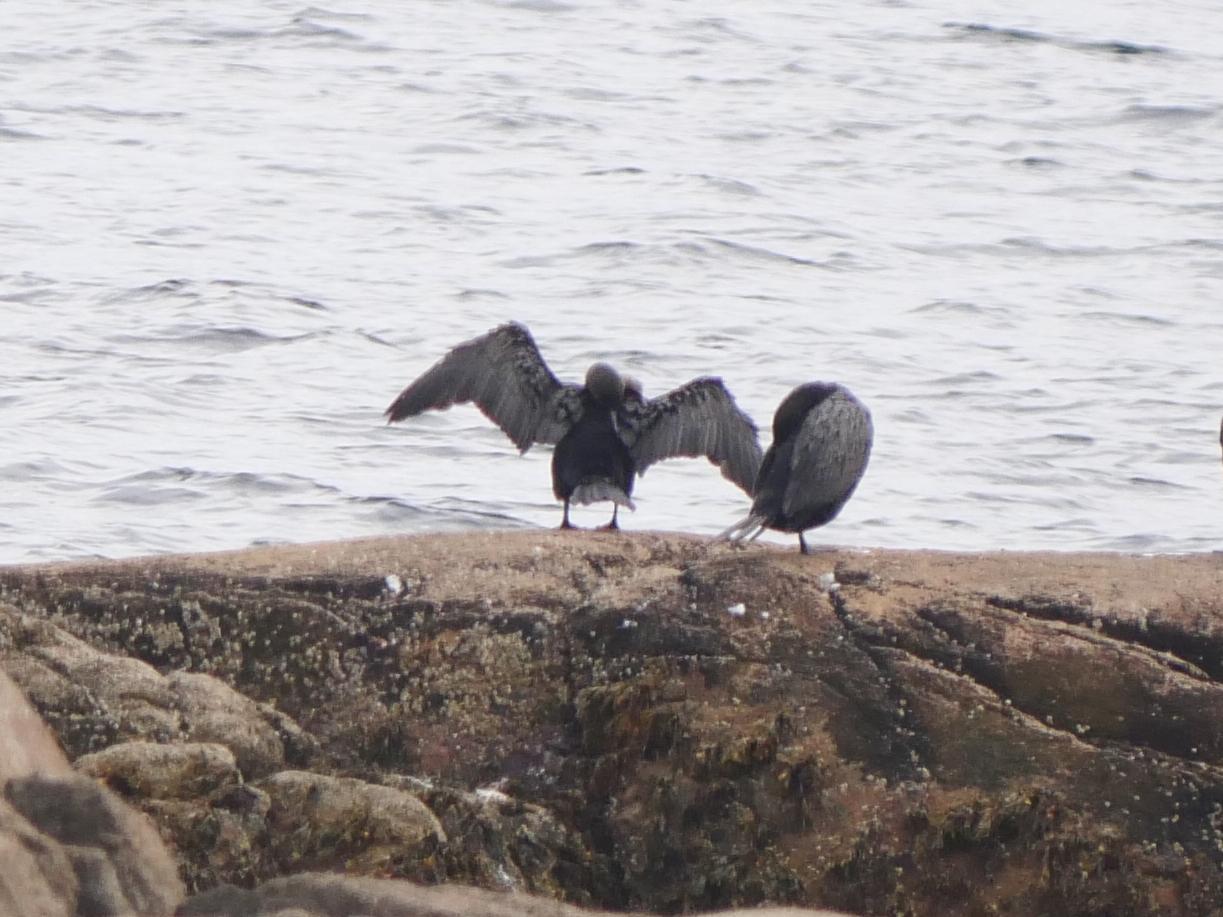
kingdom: Animalia
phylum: Chordata
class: Aves
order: Suliformes
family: Phalacrocoracidae
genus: Phalacrocorax
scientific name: Phalacrocorax auritus
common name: Double-crested cormorant
